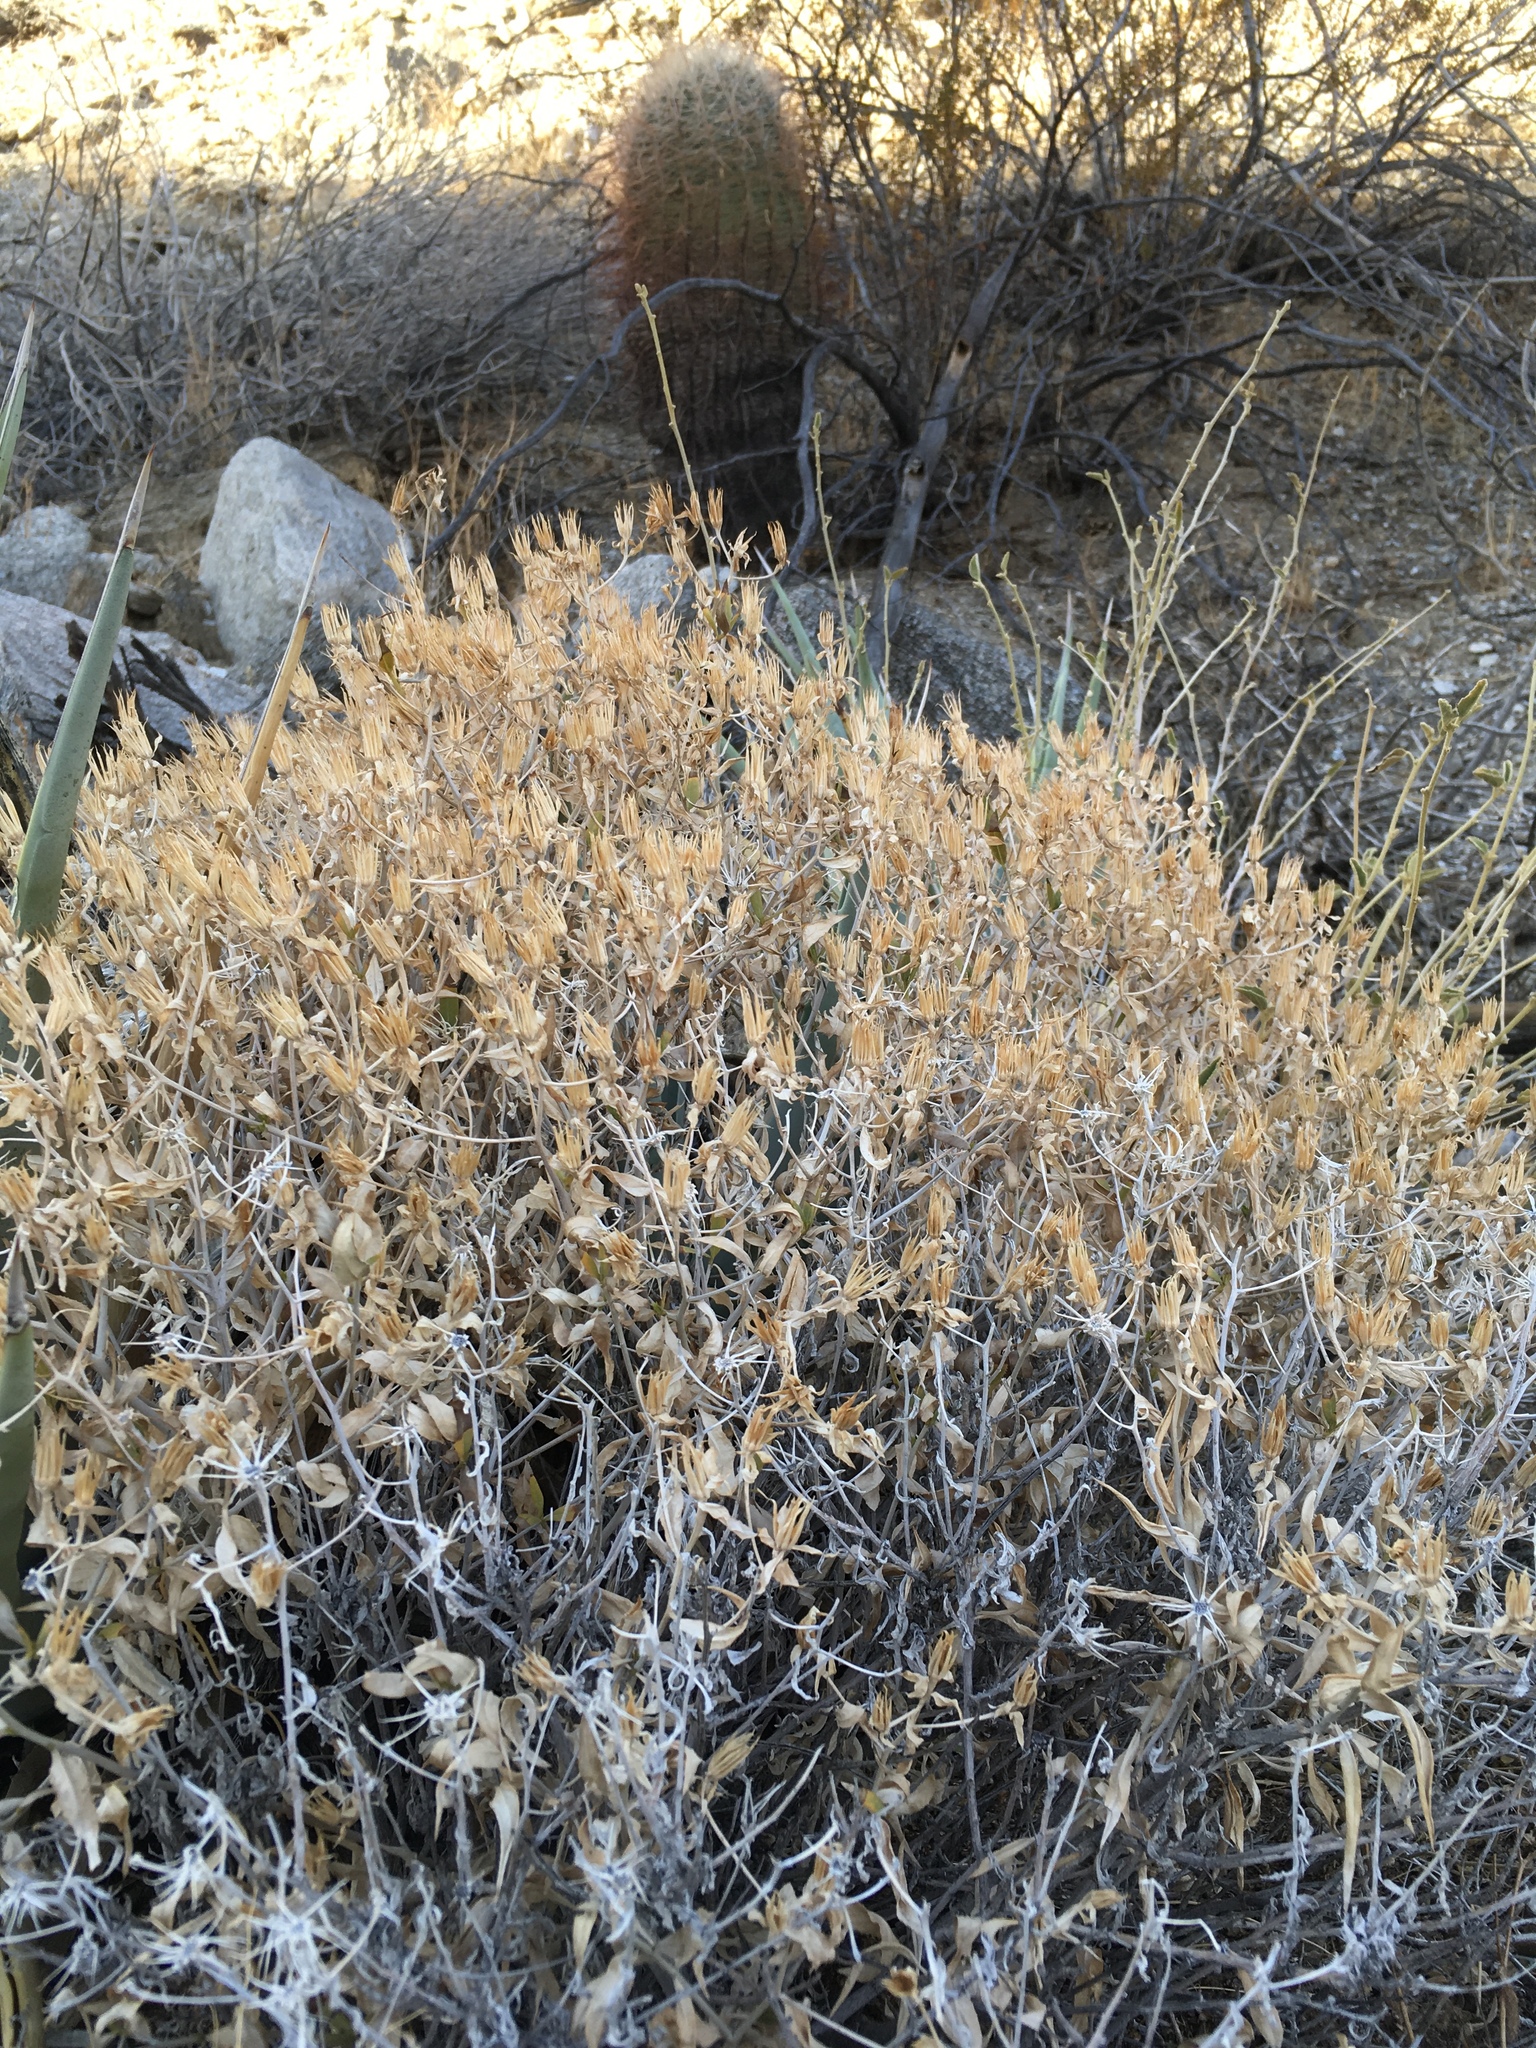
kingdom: Plantae
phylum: Tracheophyta
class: Magnoliopsida
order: Asterales
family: Asteraceae
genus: Trixis
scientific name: Trixis californica
